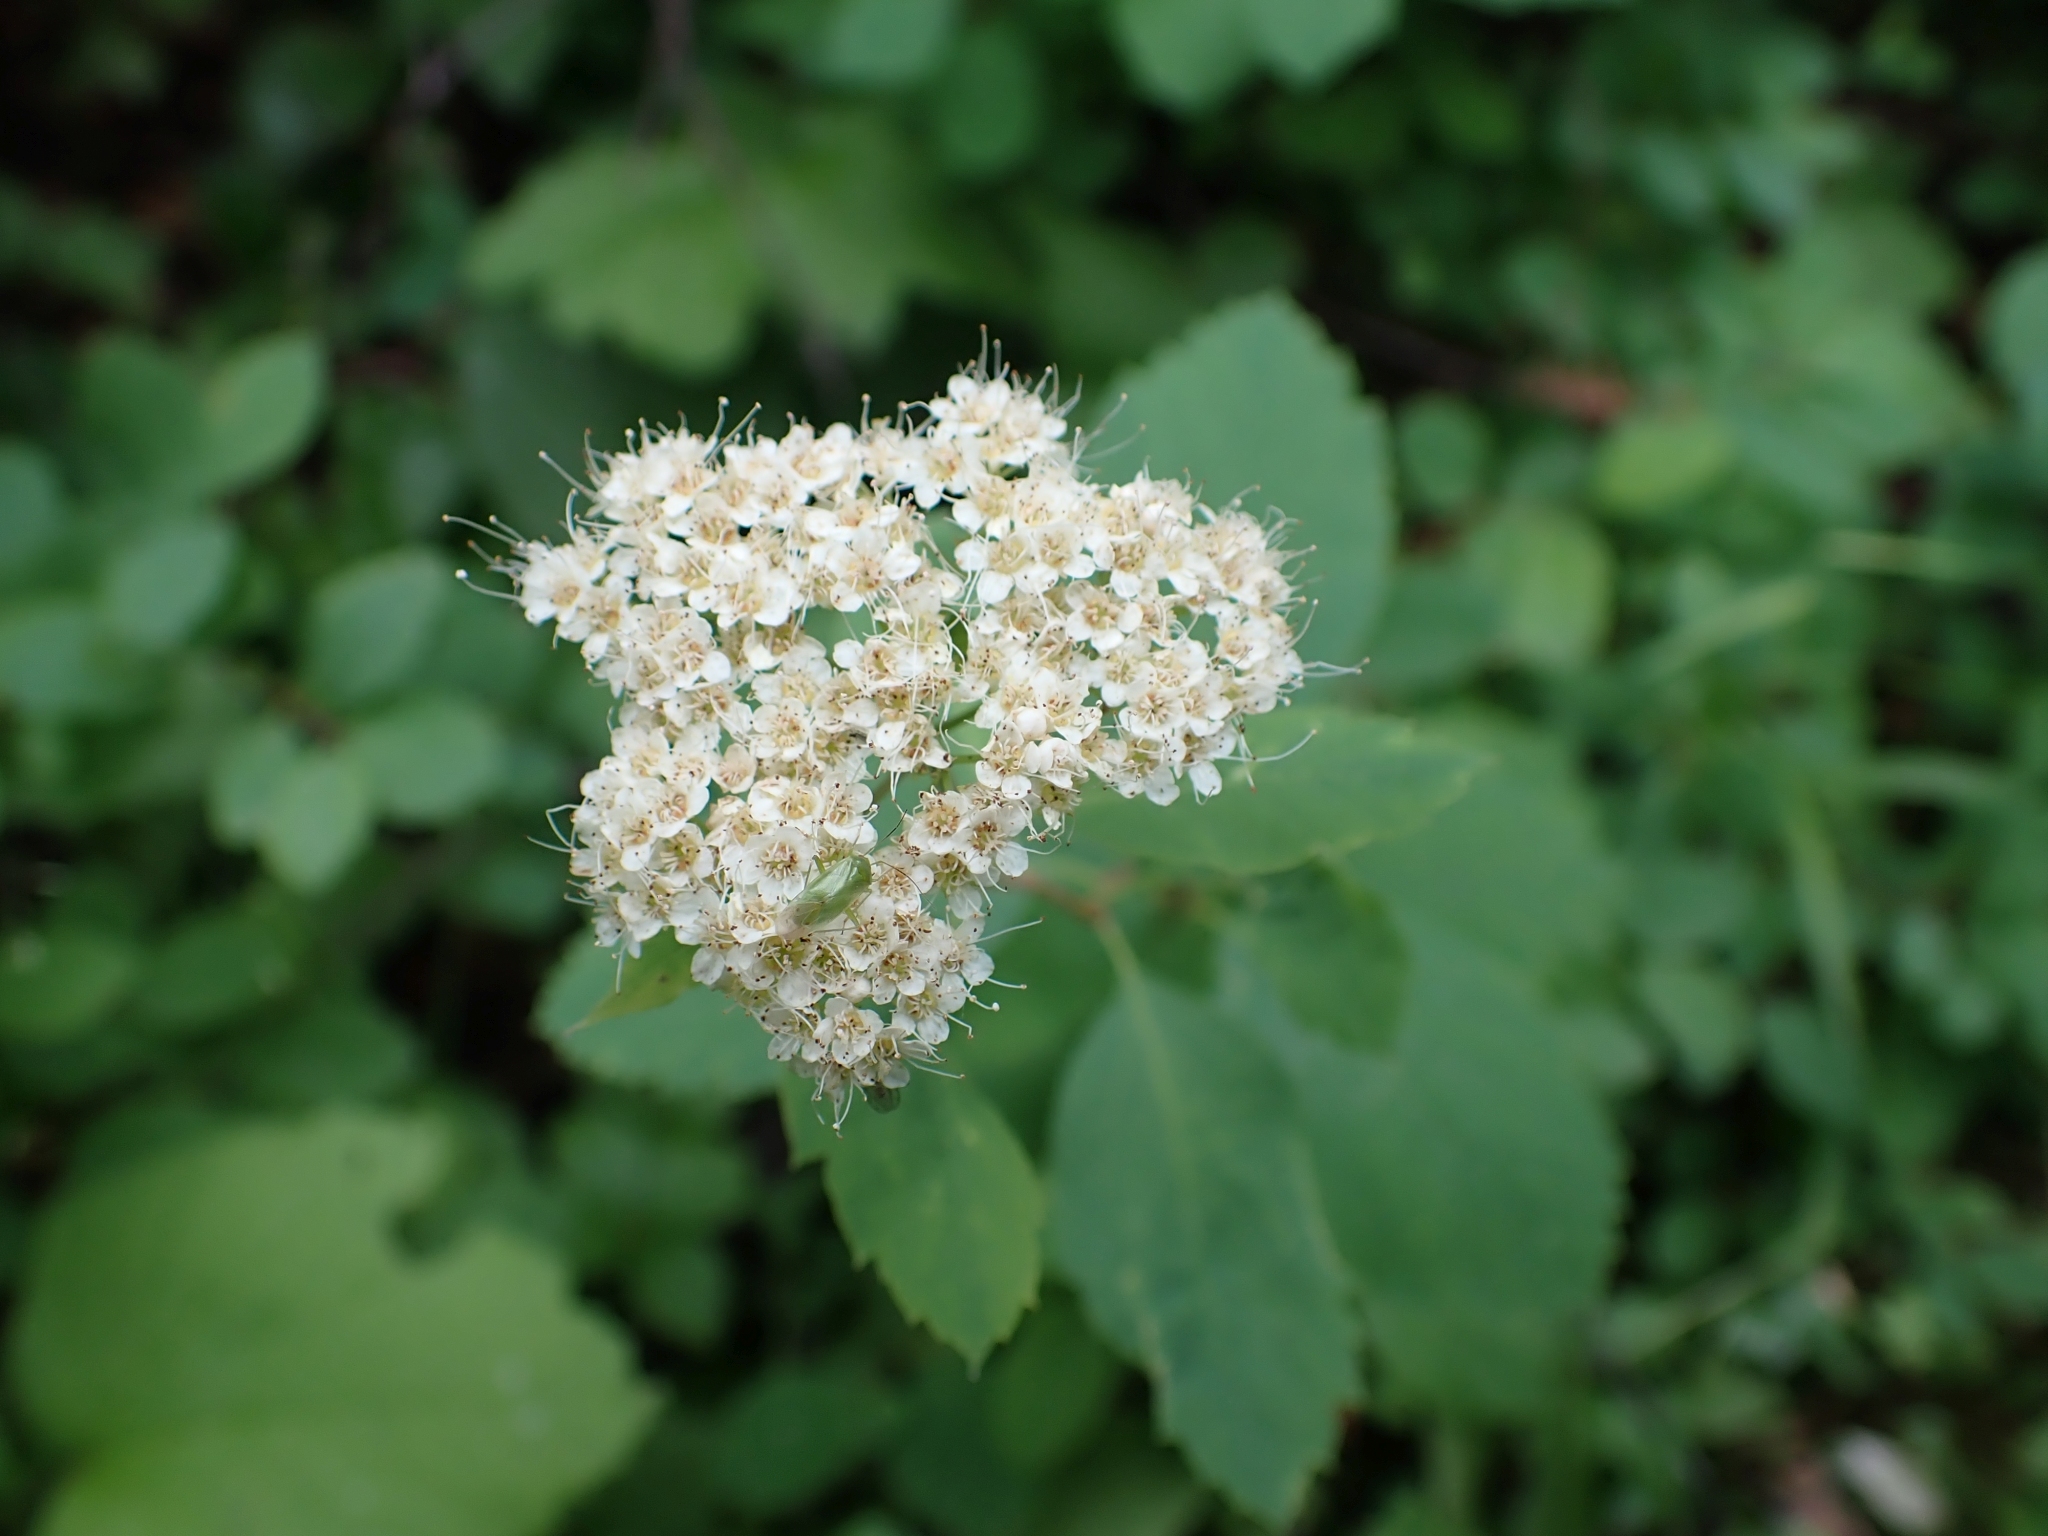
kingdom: Plantae
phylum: Tracheophyta
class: Magnoliopsida
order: Rosales
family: Rosaceae
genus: Spiraea
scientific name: Spiraea lucida
